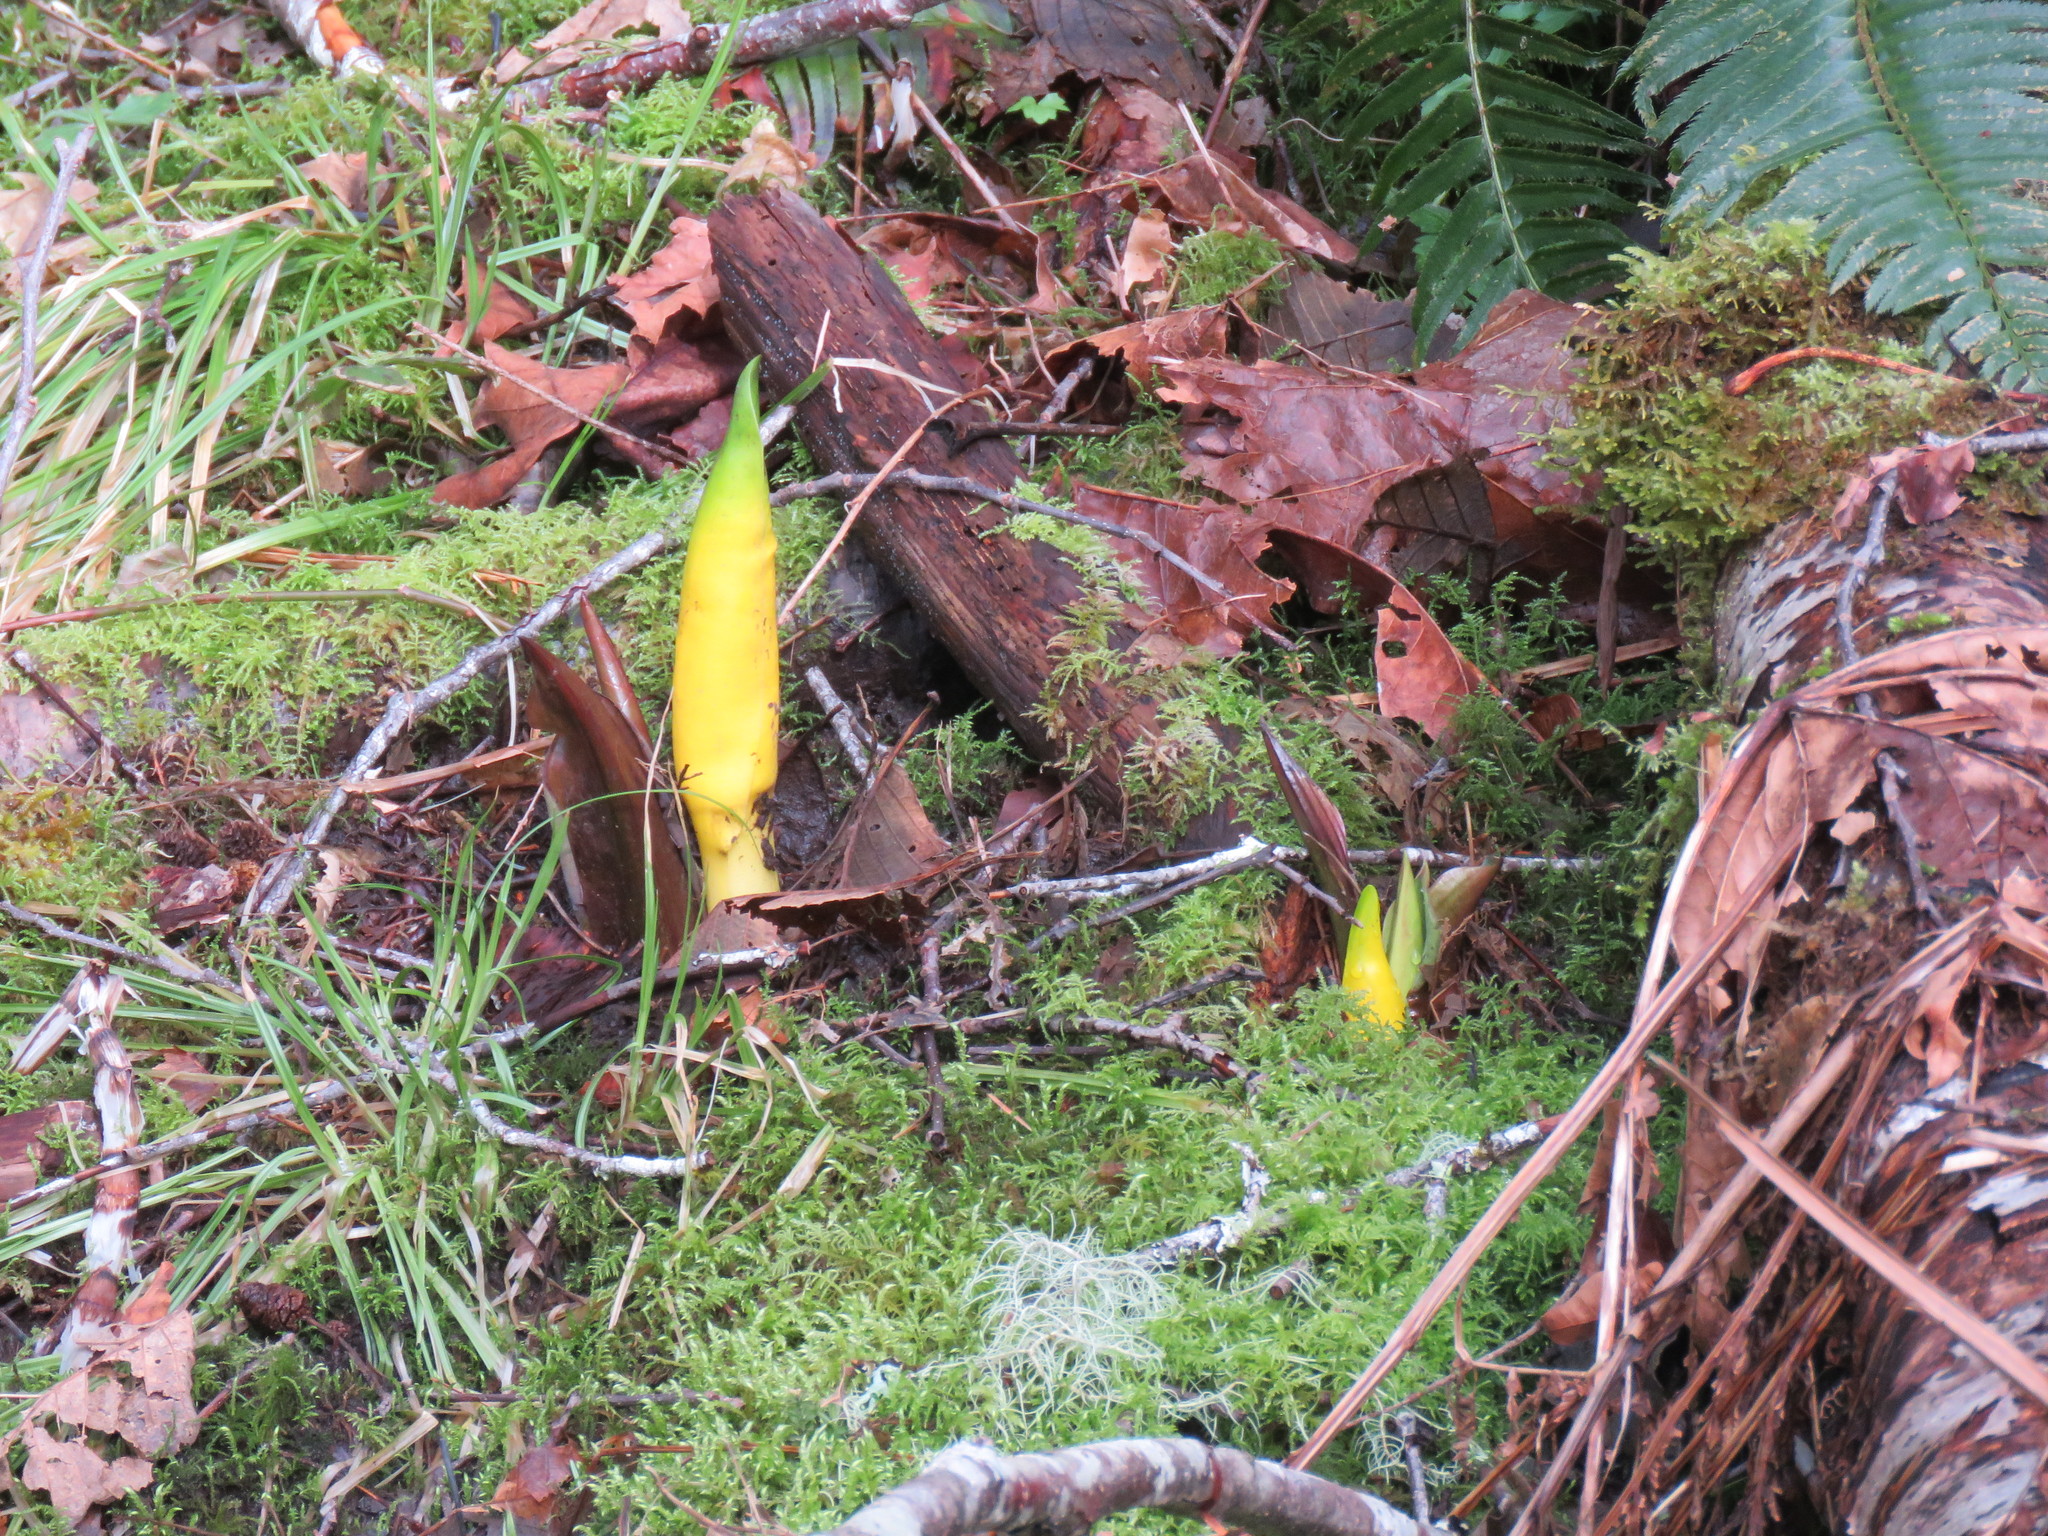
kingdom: Plantae
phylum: Tracheophyta
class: Liliopsida
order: Alismatales
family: Araceae
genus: Lysichiton
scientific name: Lysichiton americanus
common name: American skunk cabbage
